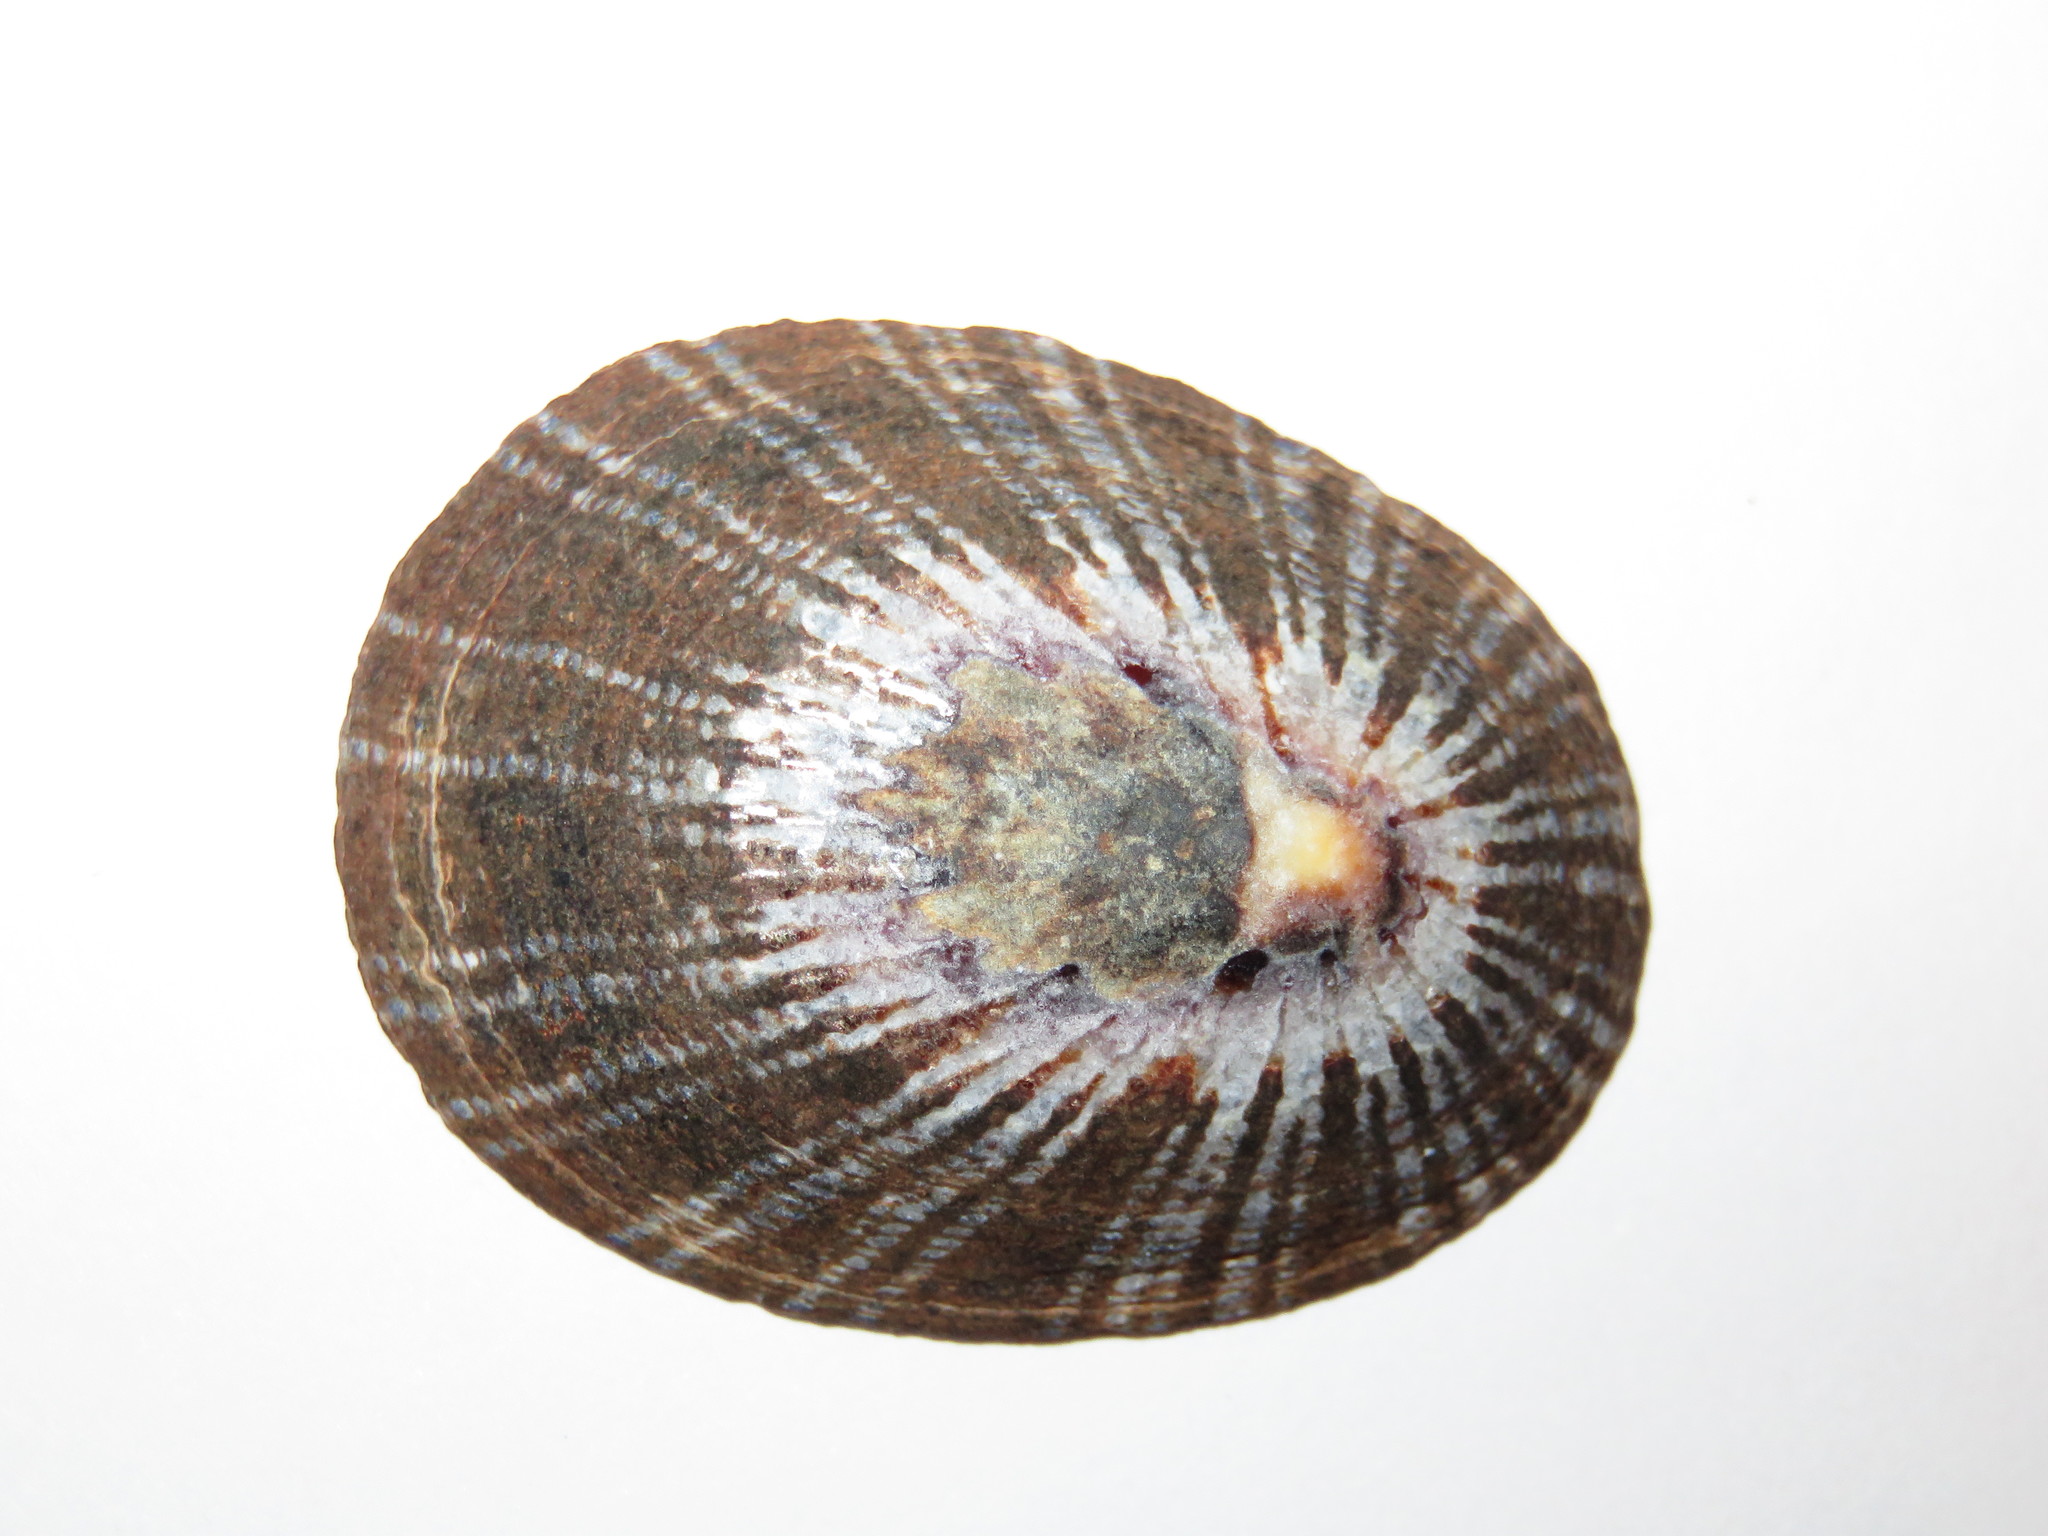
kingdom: Animalia
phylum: Mollusca
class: Gastropoda
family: Nacellidae
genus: Cellana
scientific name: Cellana nigrolineata
